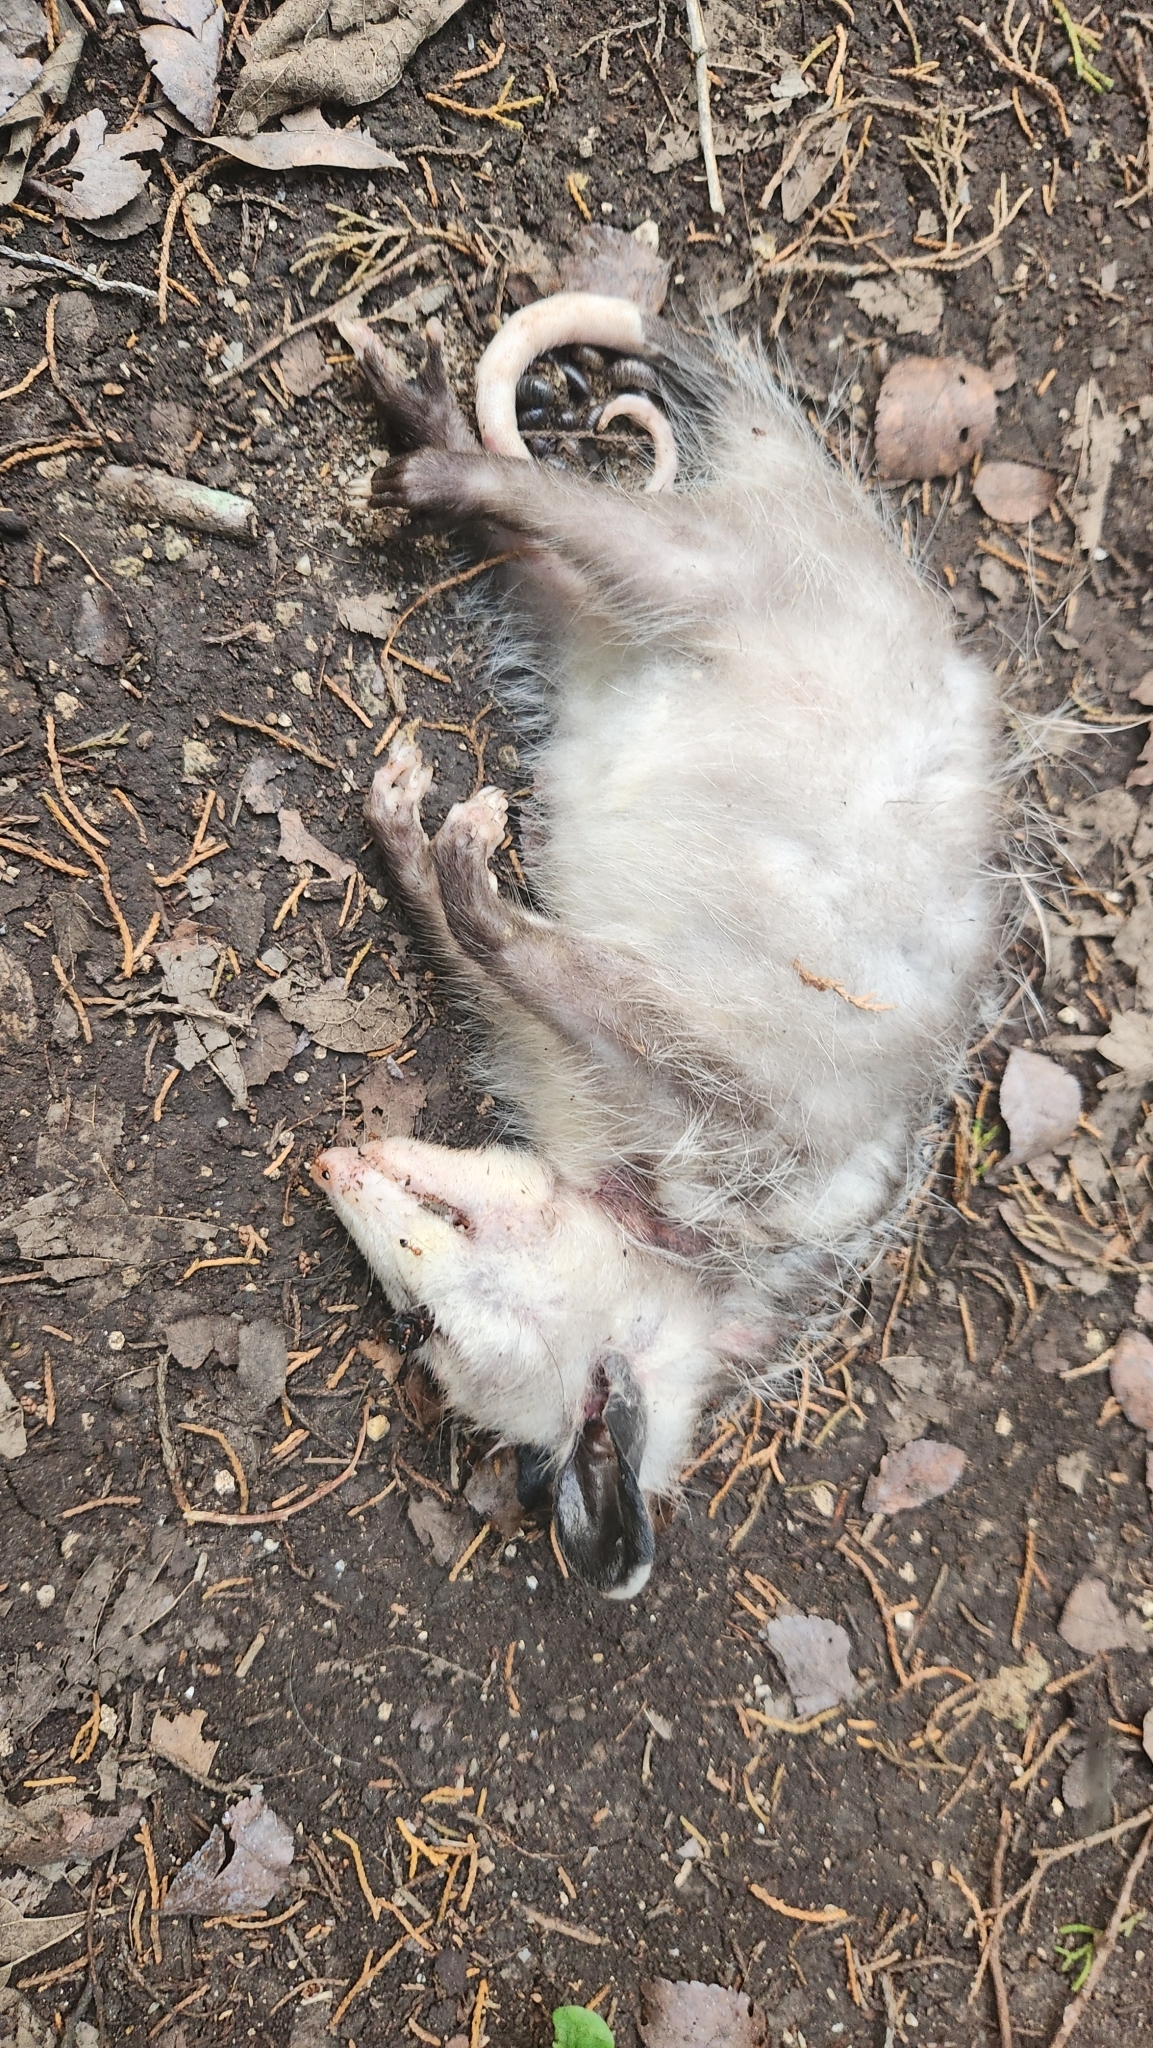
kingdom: Animalia
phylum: Chordata
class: Mammalia
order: Didelphimorphia
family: Didelphidae
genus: Didelphis
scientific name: Didelphis virginiana
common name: Virginia opossum
